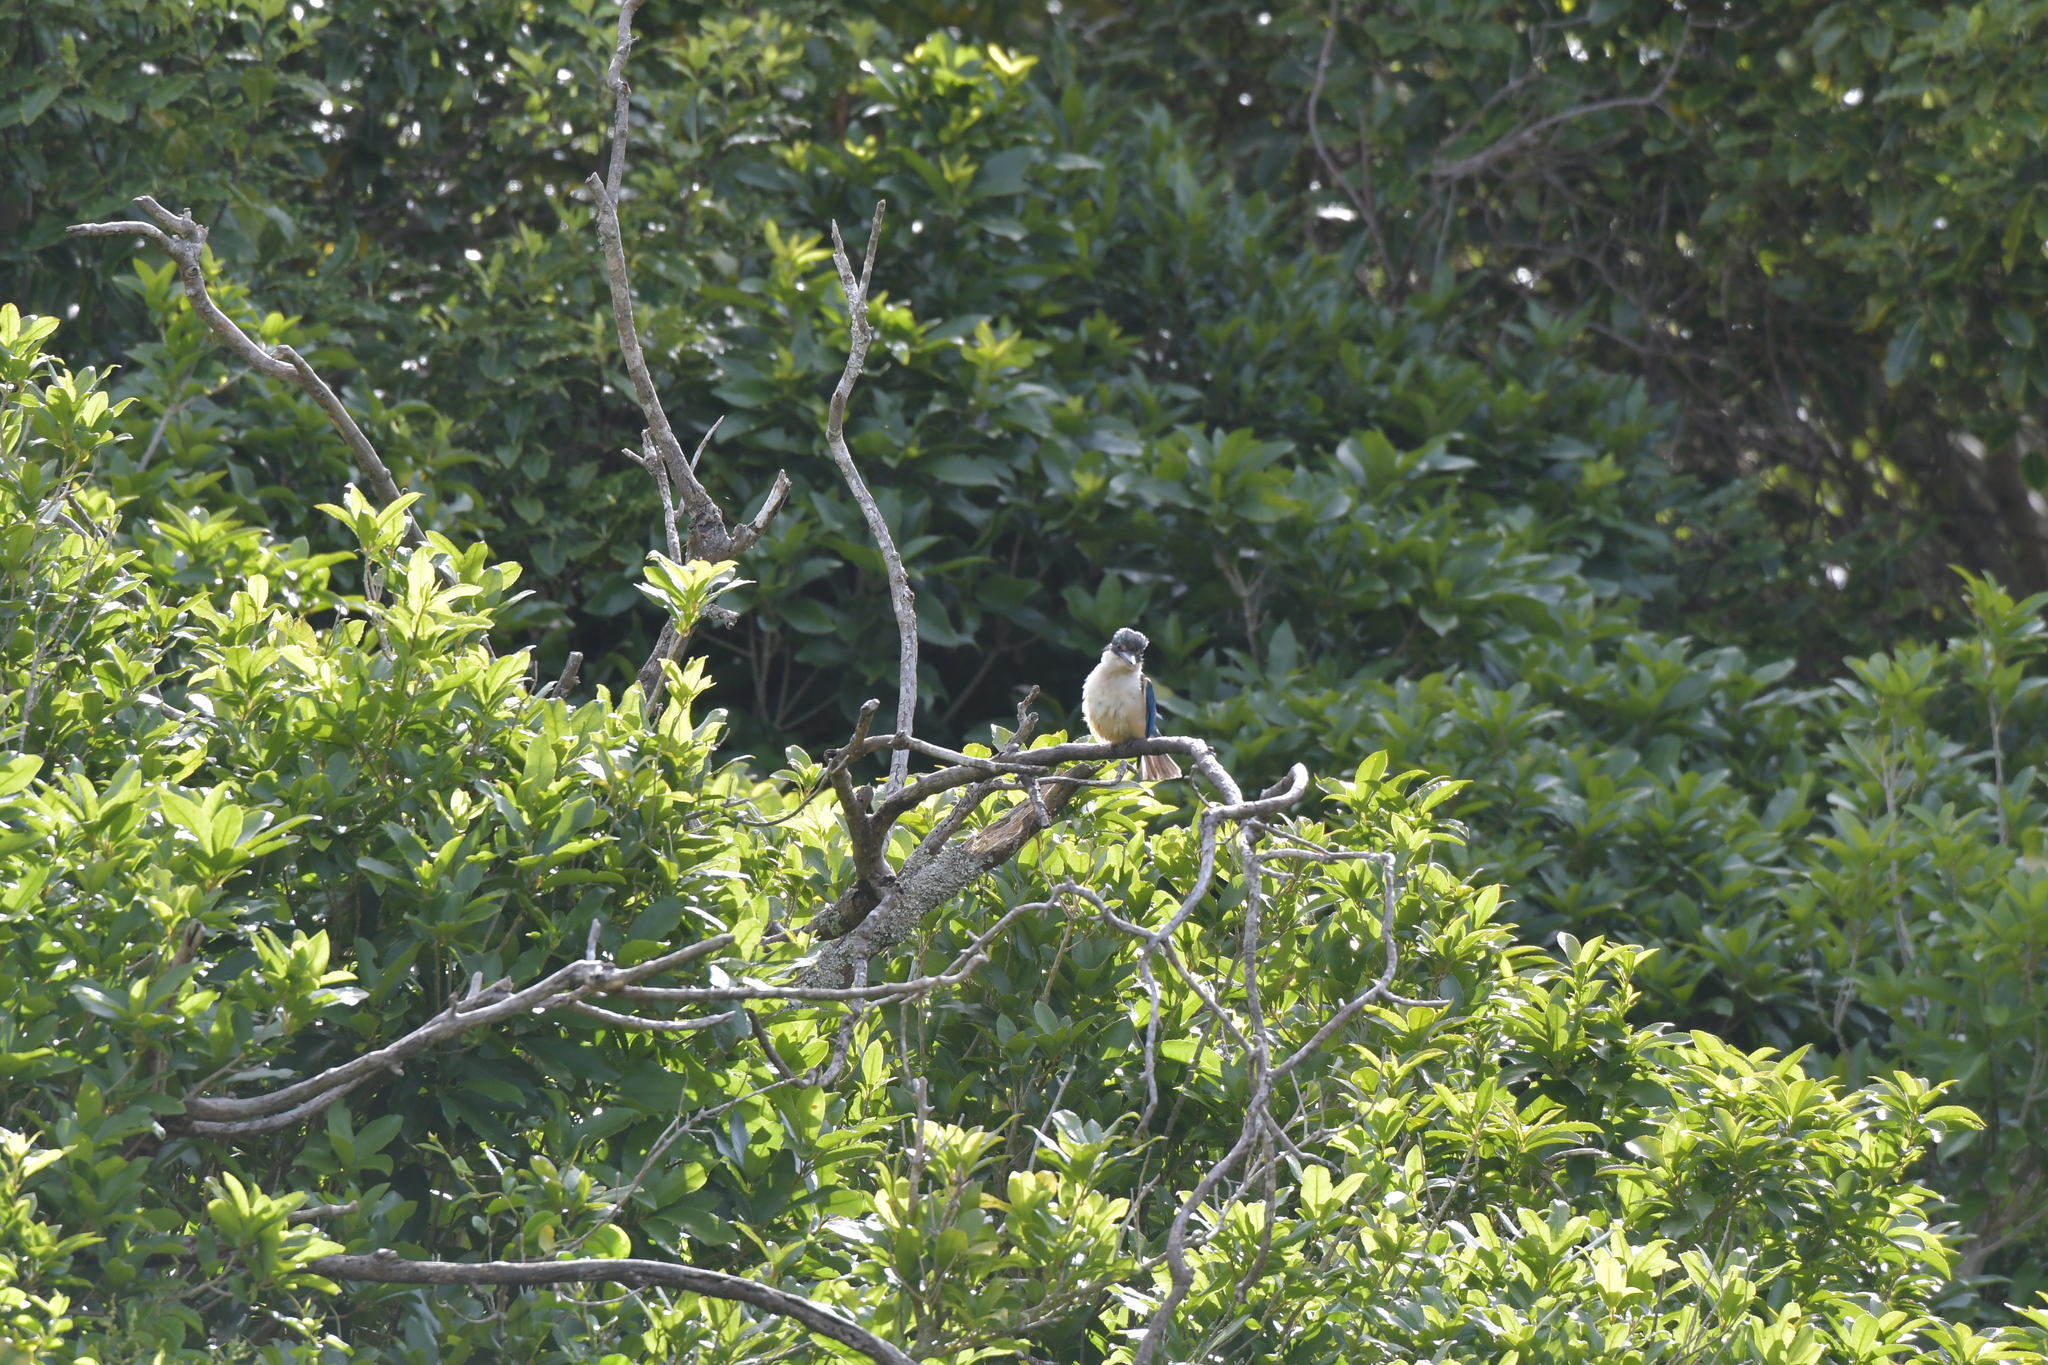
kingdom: Animalia
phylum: Chordata
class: Aves
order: Coraciiformes
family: Alcedinidae
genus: Todiramphus
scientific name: Todiramphus sanctus
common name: Sacred kingfisher
